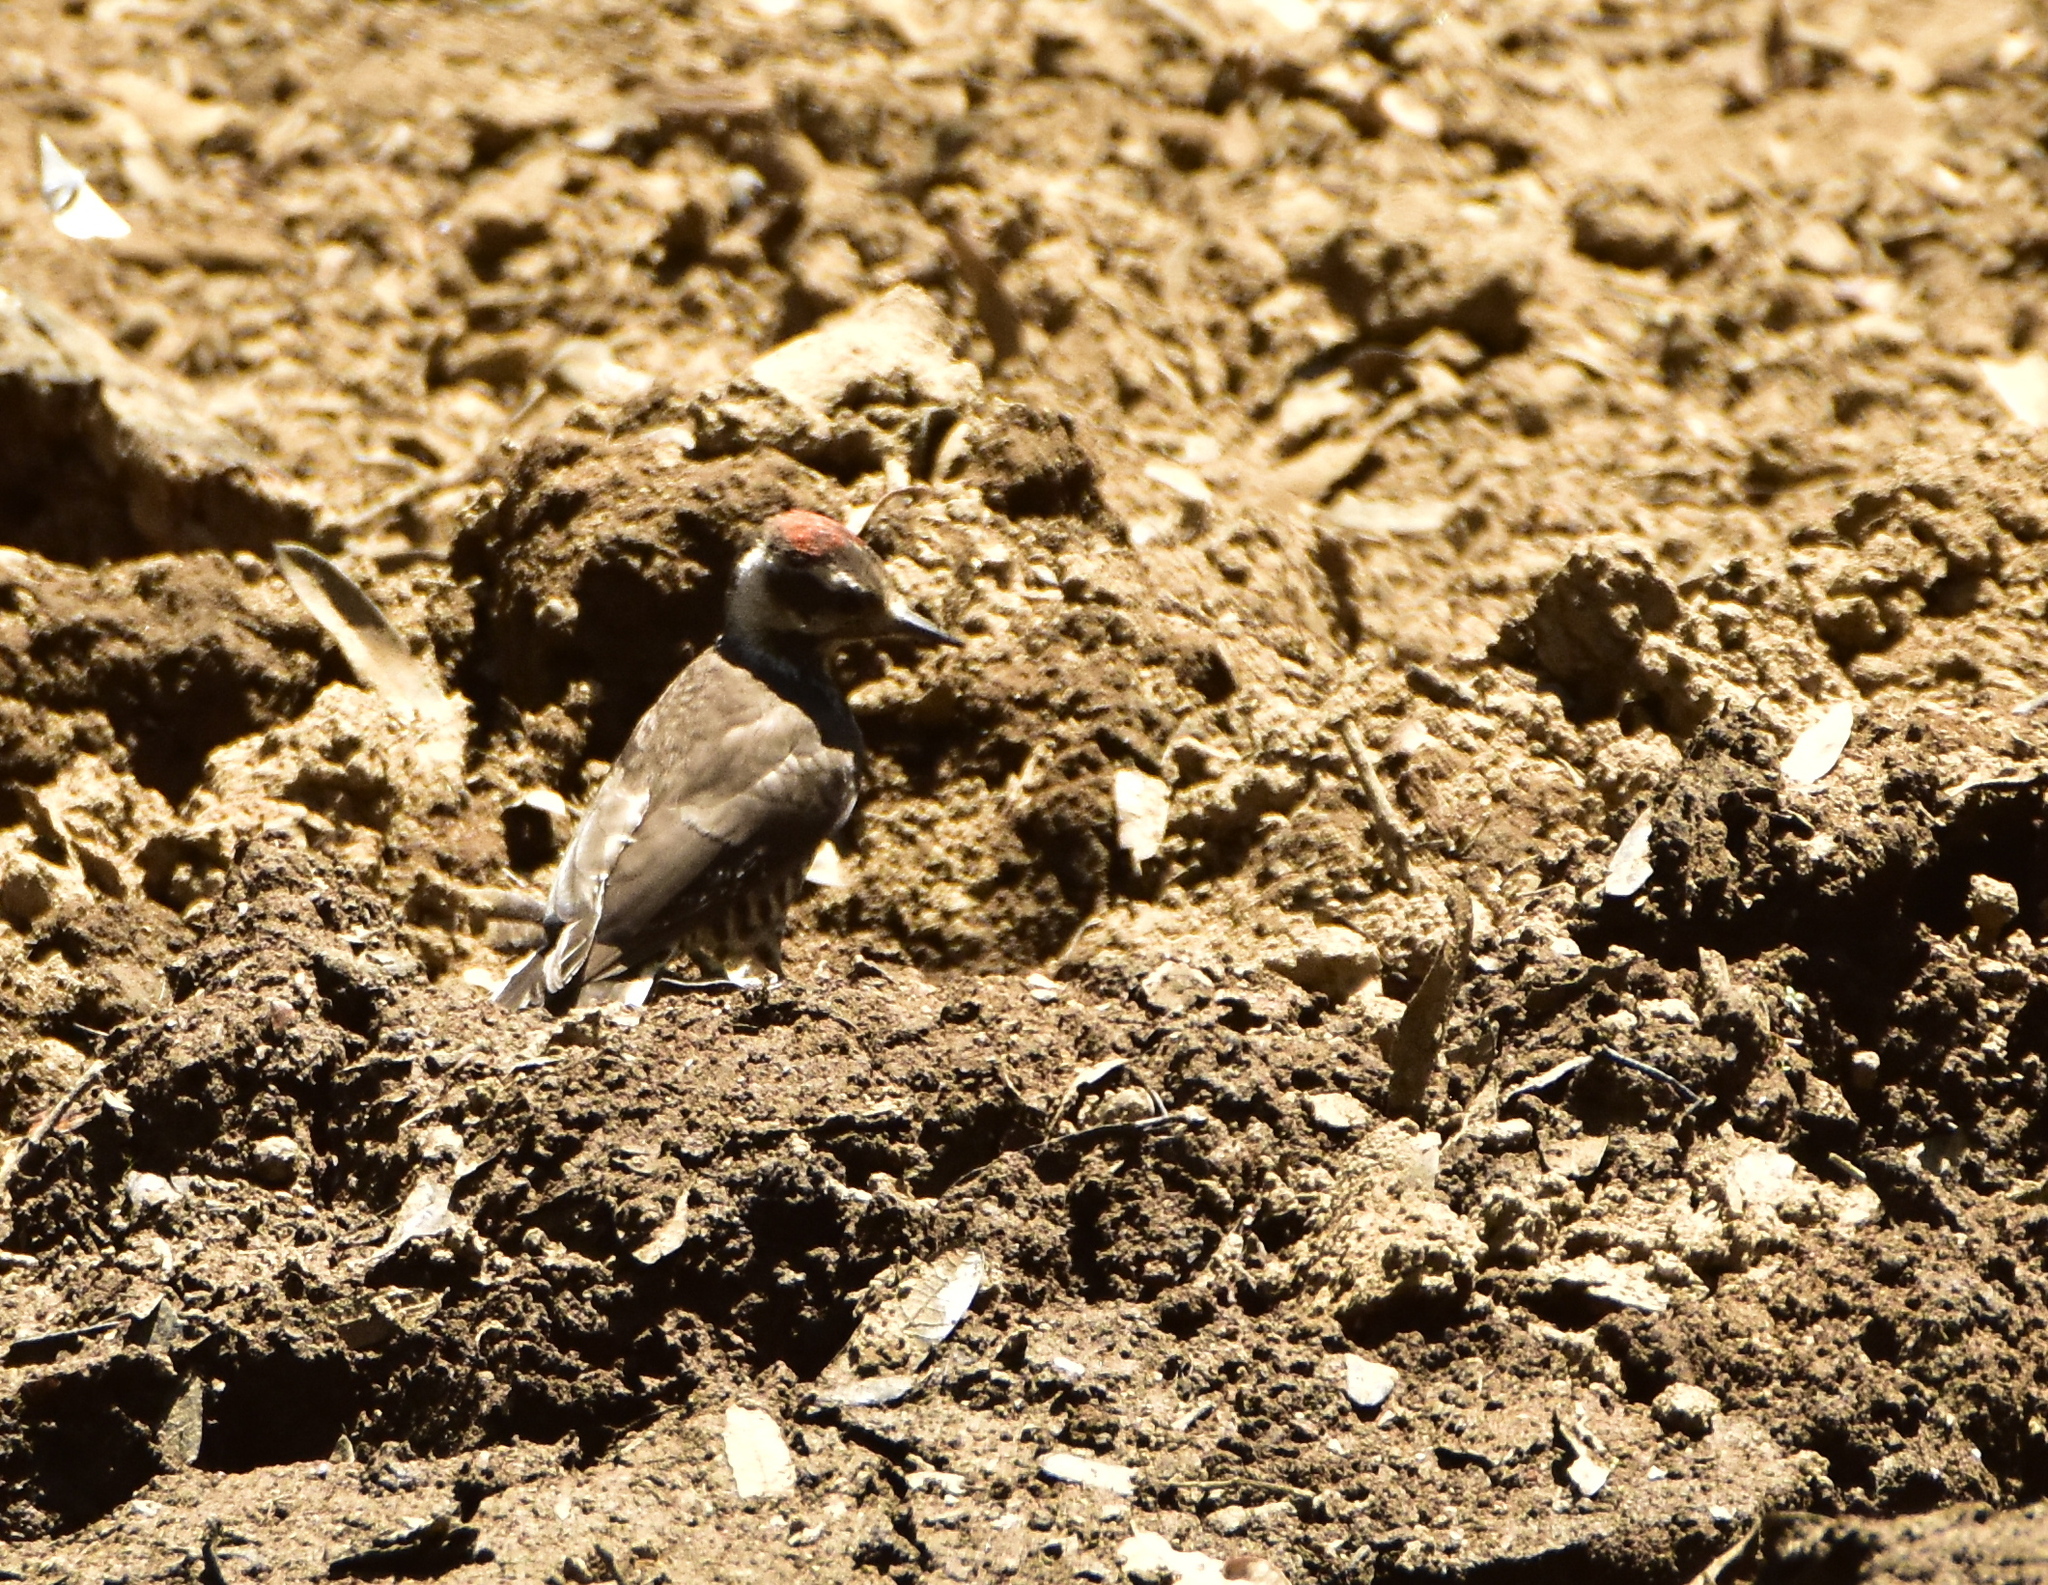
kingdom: Animalia
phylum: Chordata
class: Aves
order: Piciformes
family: Picidae
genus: Leuconotopicus
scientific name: Leuconotopicus arizonae
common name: Arizona woodpecker
